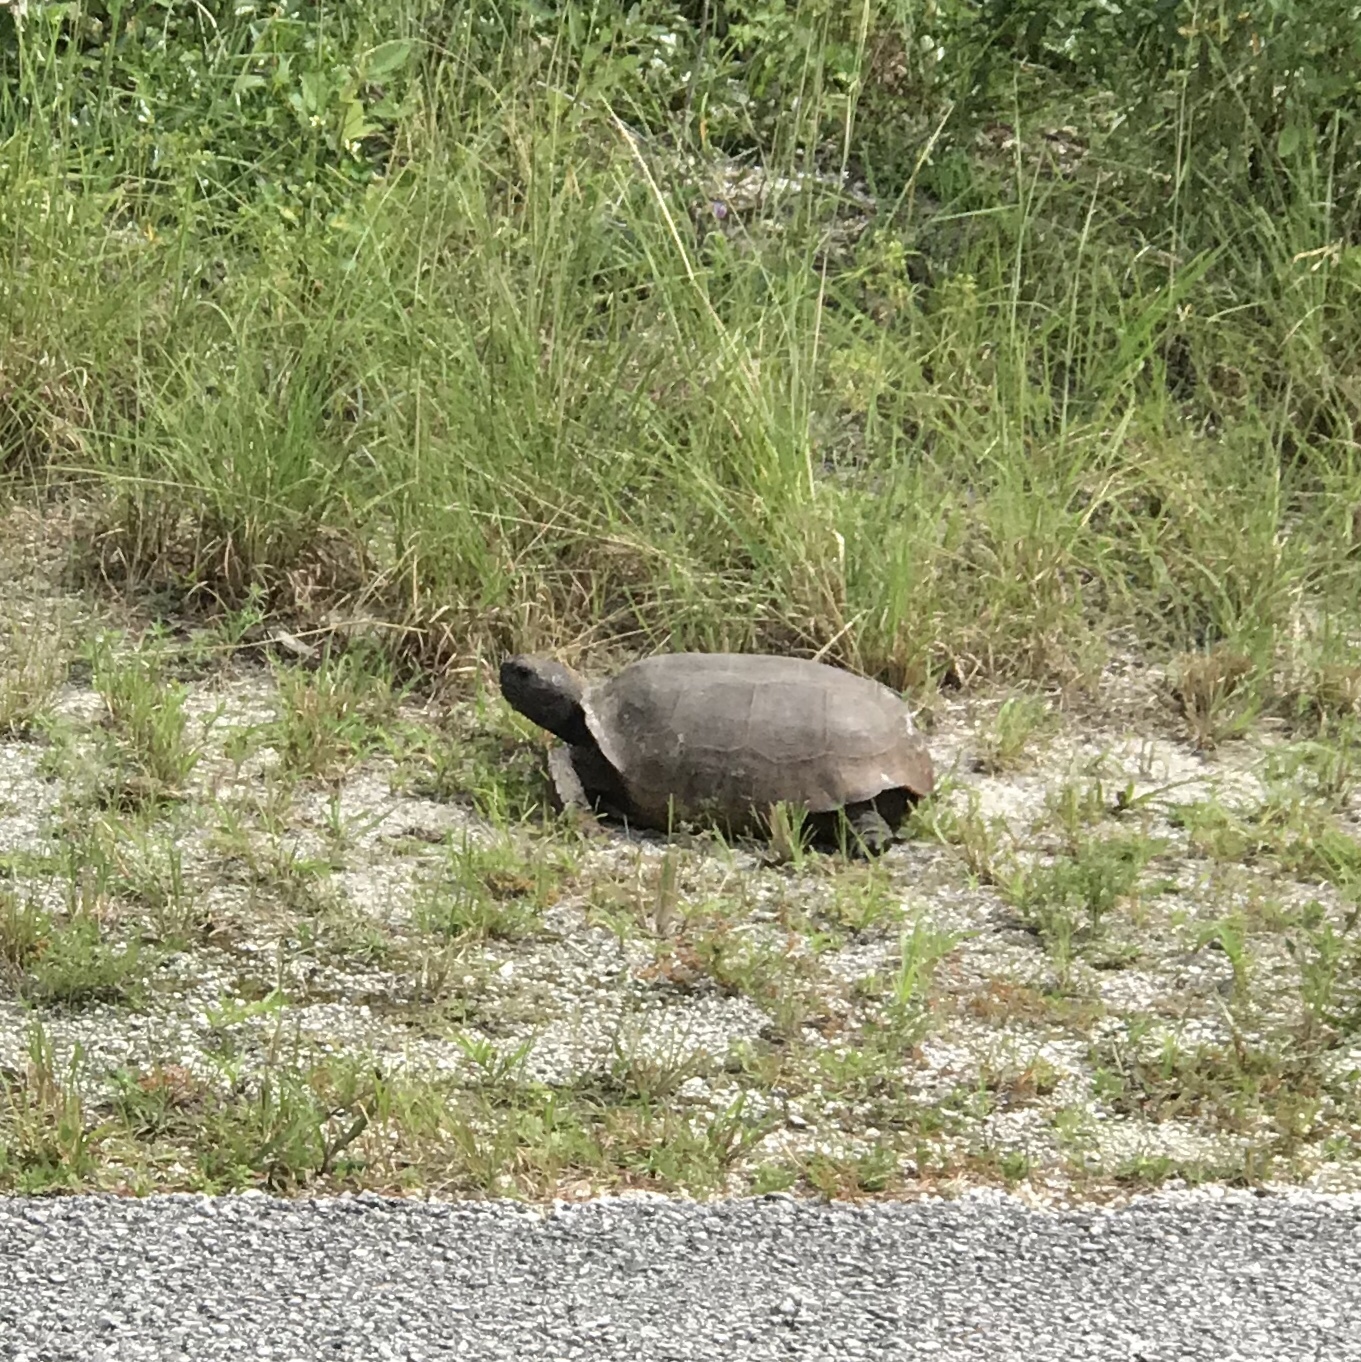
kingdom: Animalia
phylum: Chordata
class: Testudines
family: Testudinidae
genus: Gopherus
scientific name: Gopherus polyphemus
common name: Florida gopher tortoise
